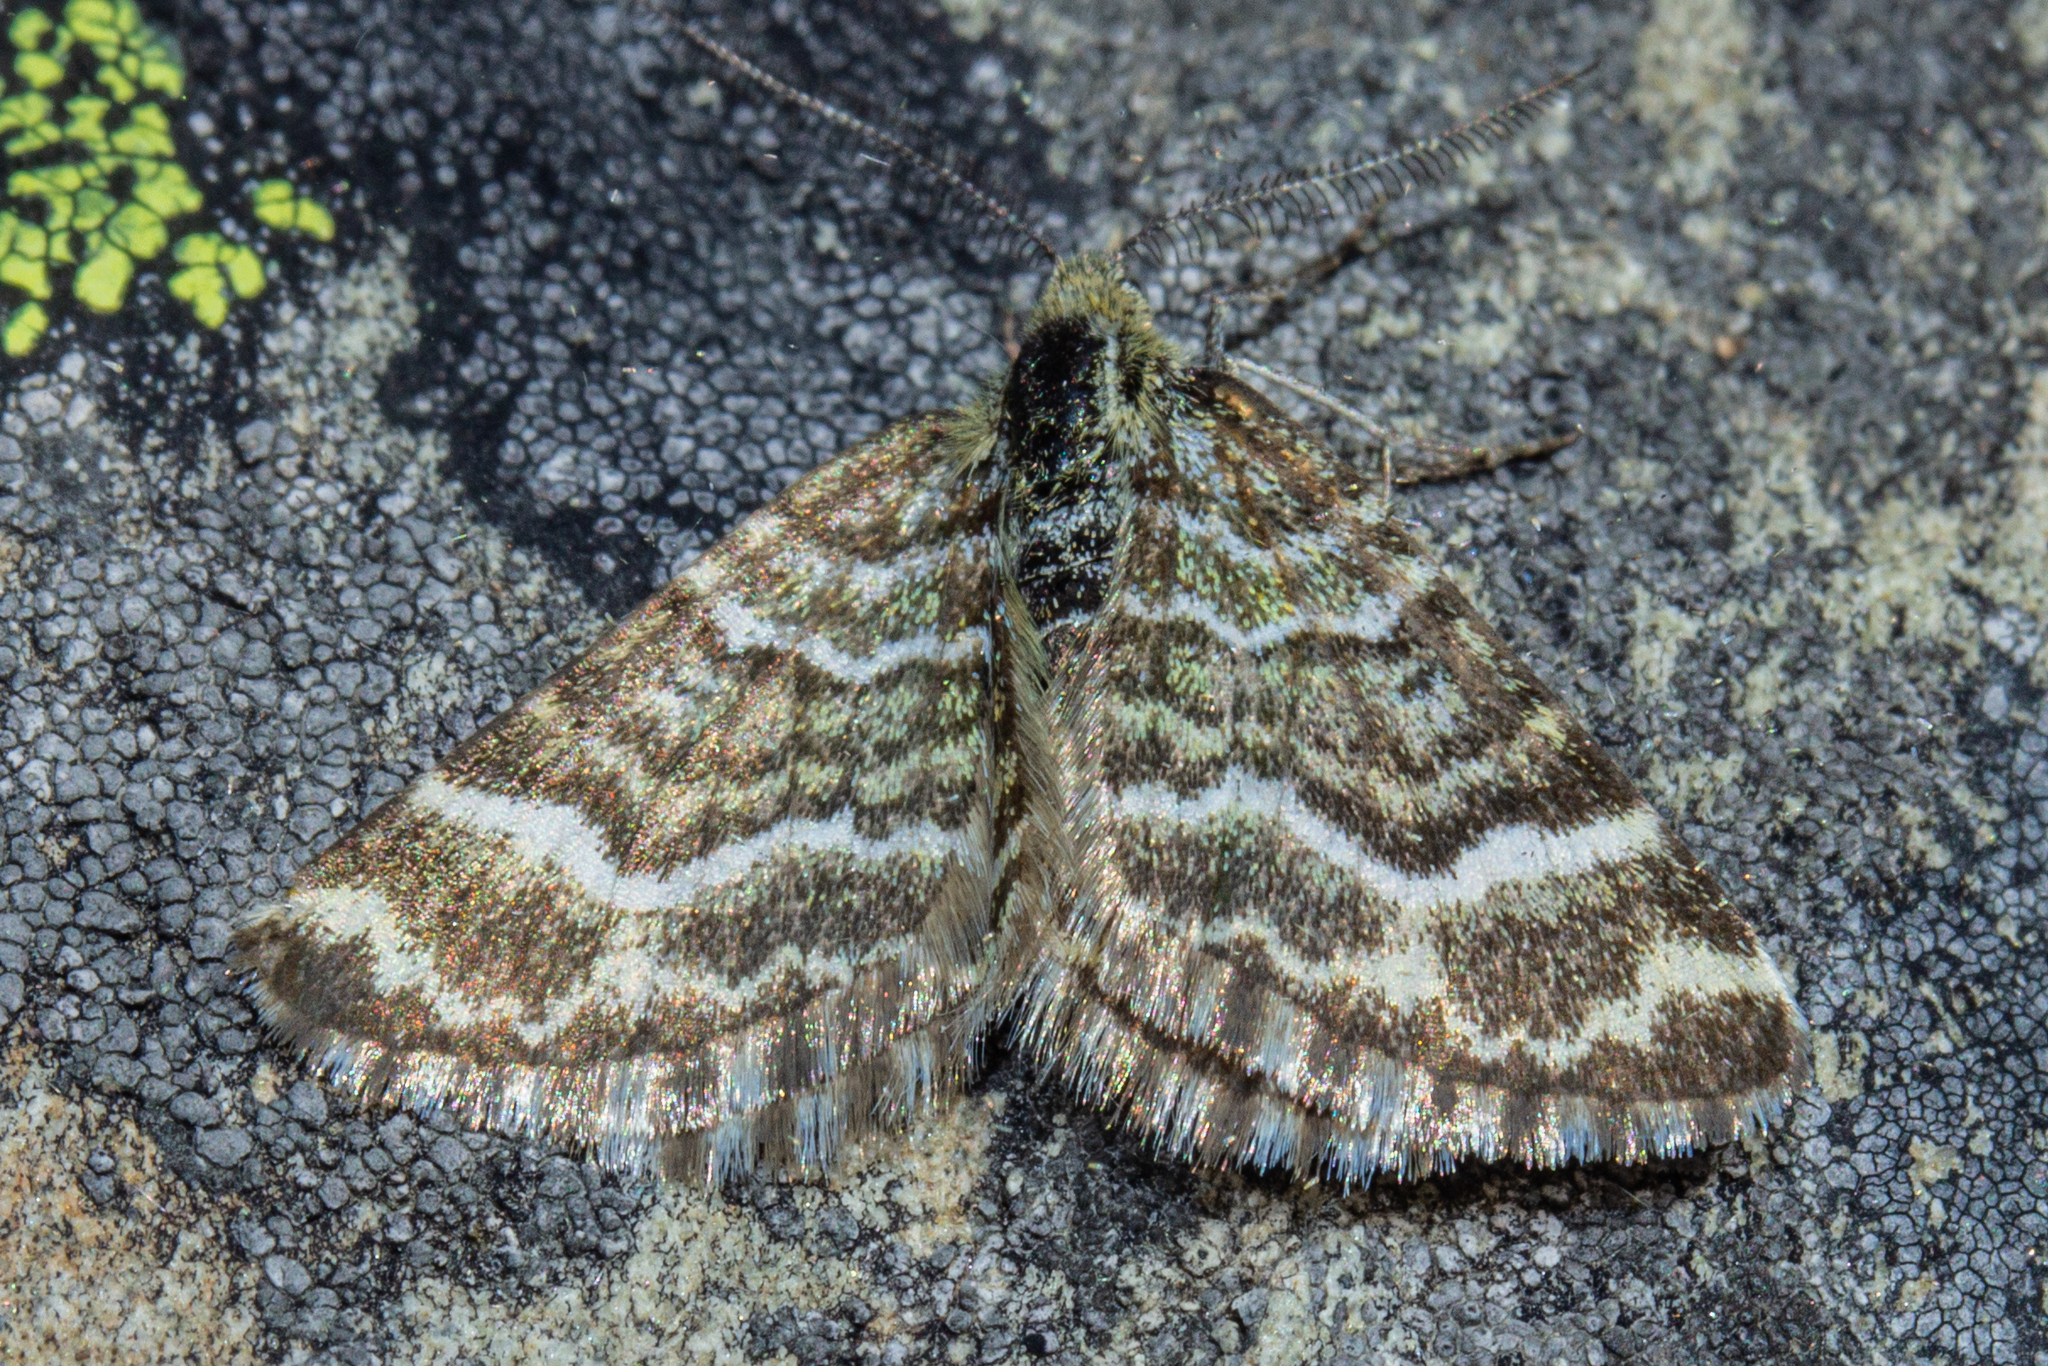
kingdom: Animalia
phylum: Arthropoda
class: Insecta
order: Lepidoptera
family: Geometridae
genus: Notoreas
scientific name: Notoreas paradelpha
